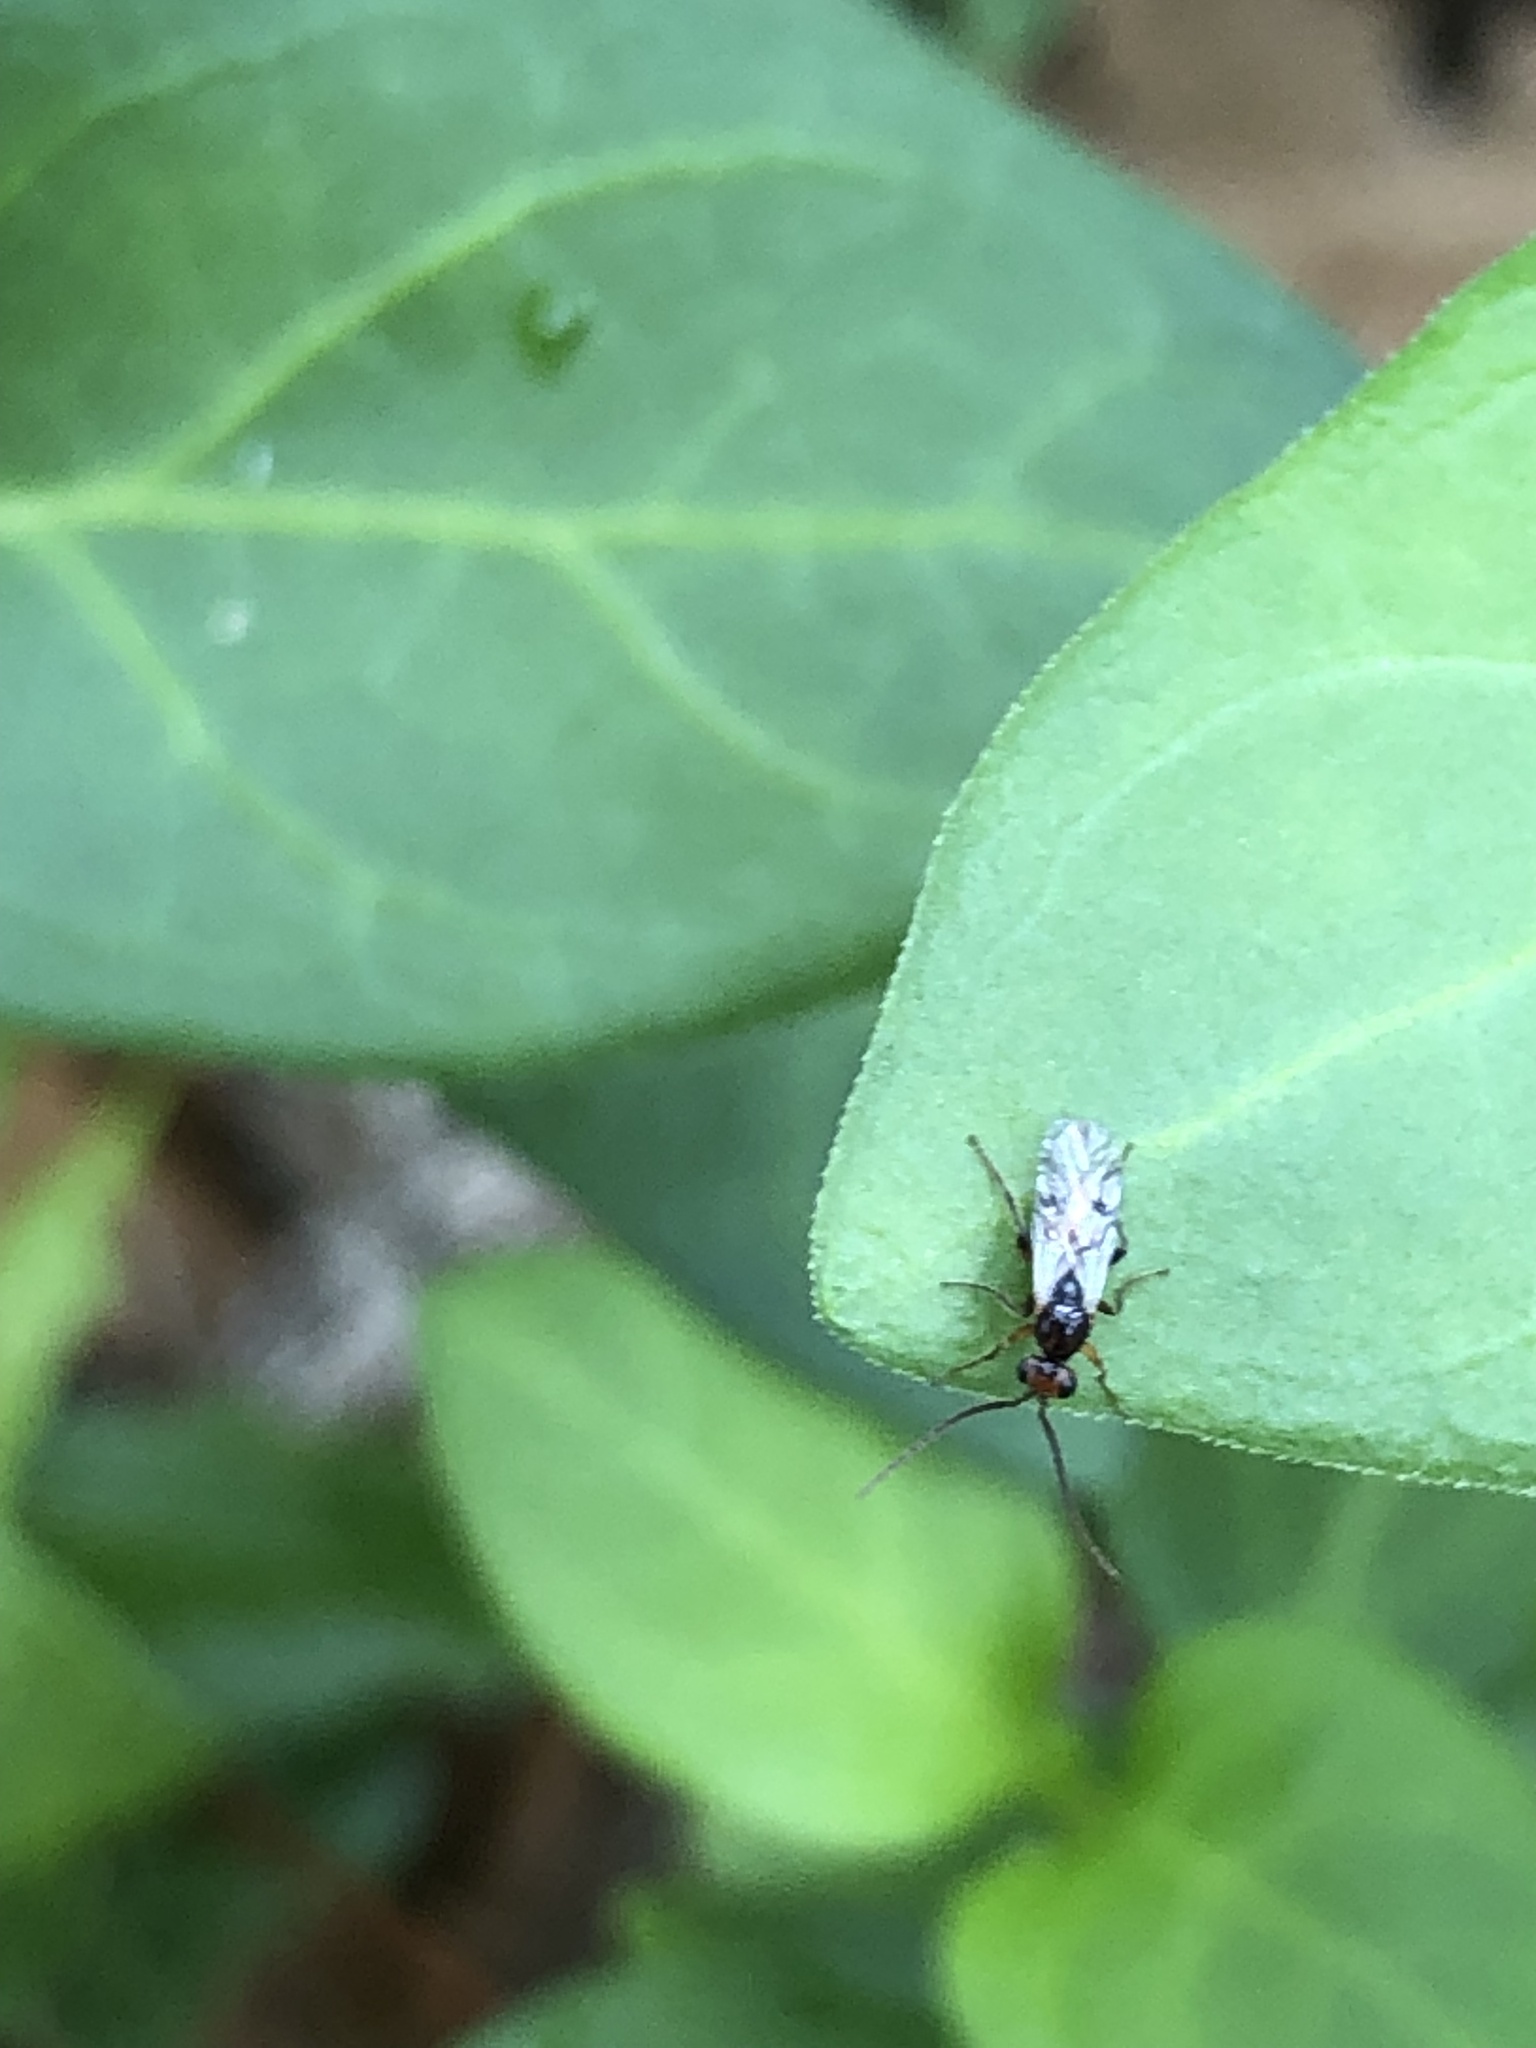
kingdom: Animalia
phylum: Arthropoda
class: Insecta
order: Hymenoptera
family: Cynipidae
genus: Belonocnema
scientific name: Belonocnema kinseyi
